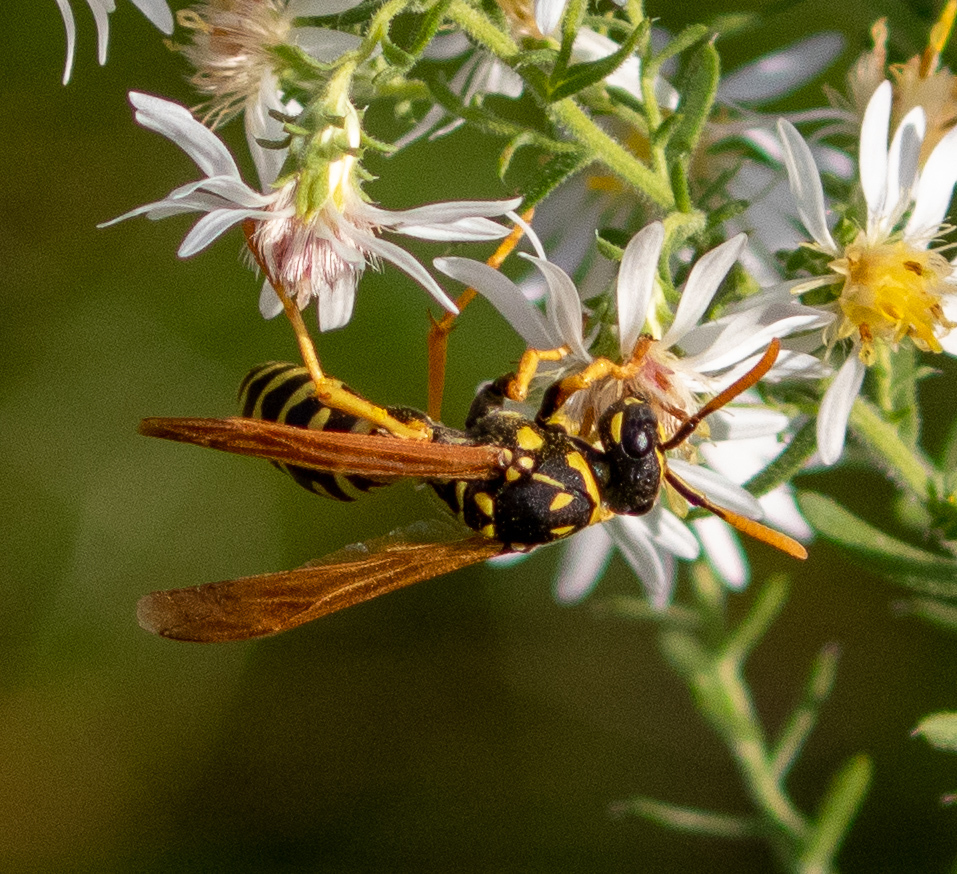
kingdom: Animalia
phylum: Arthropoda
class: Insecta
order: Hymenoptera
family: Eumenidae
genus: Polistes
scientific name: Polistes dominula
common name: Paper wasp
